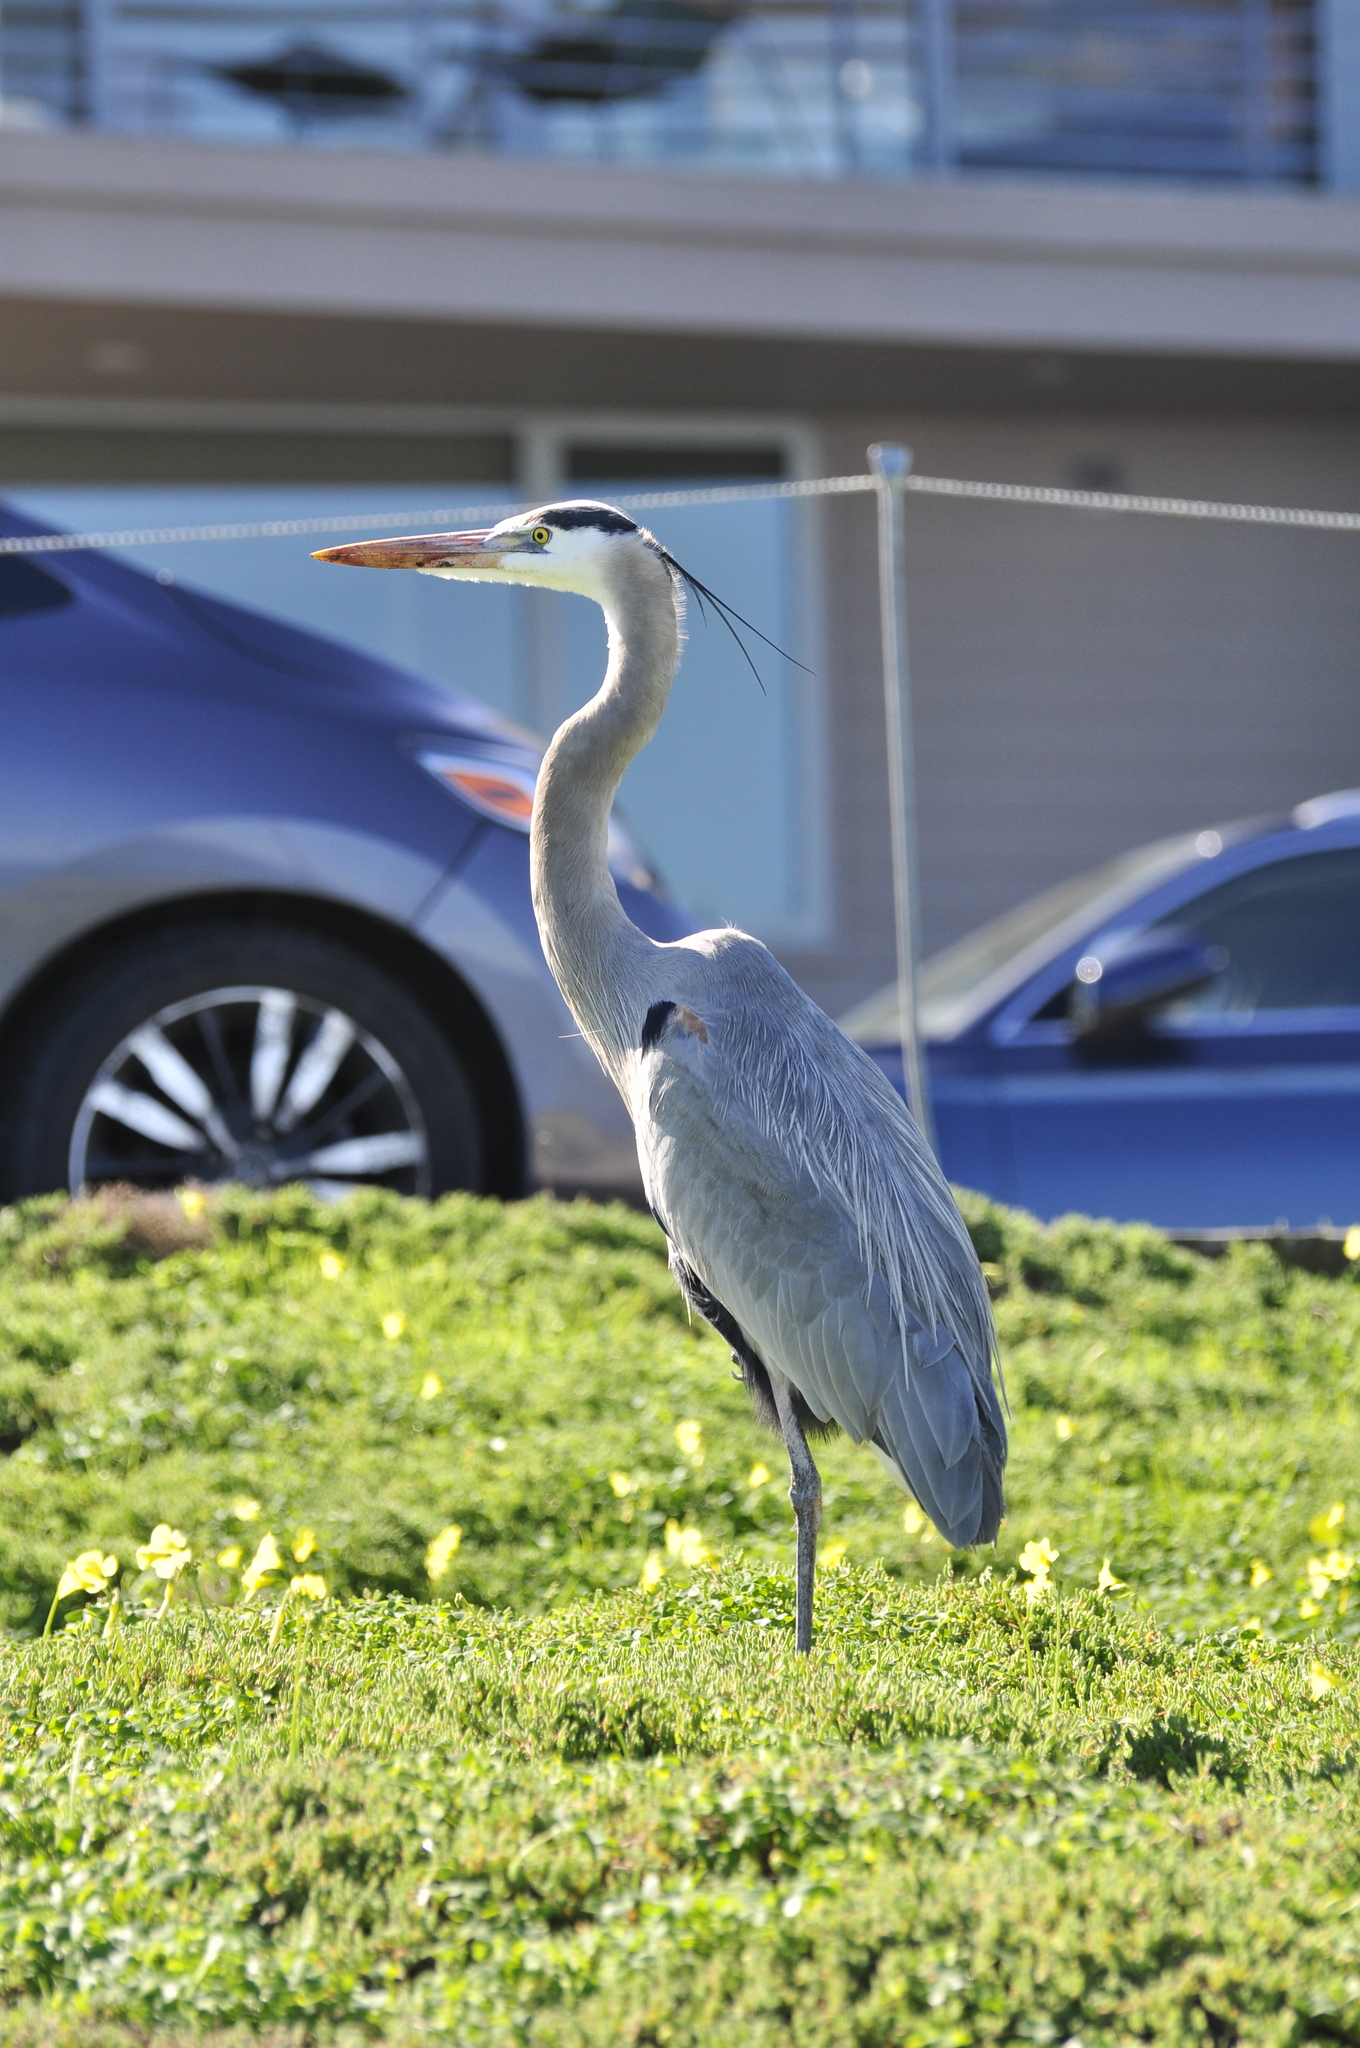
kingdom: Animalia
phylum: Chordata
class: Aves
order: Pelecaniformes
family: Ardeidae
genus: Ardea
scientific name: Ardea herodias
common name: Great blue heron
